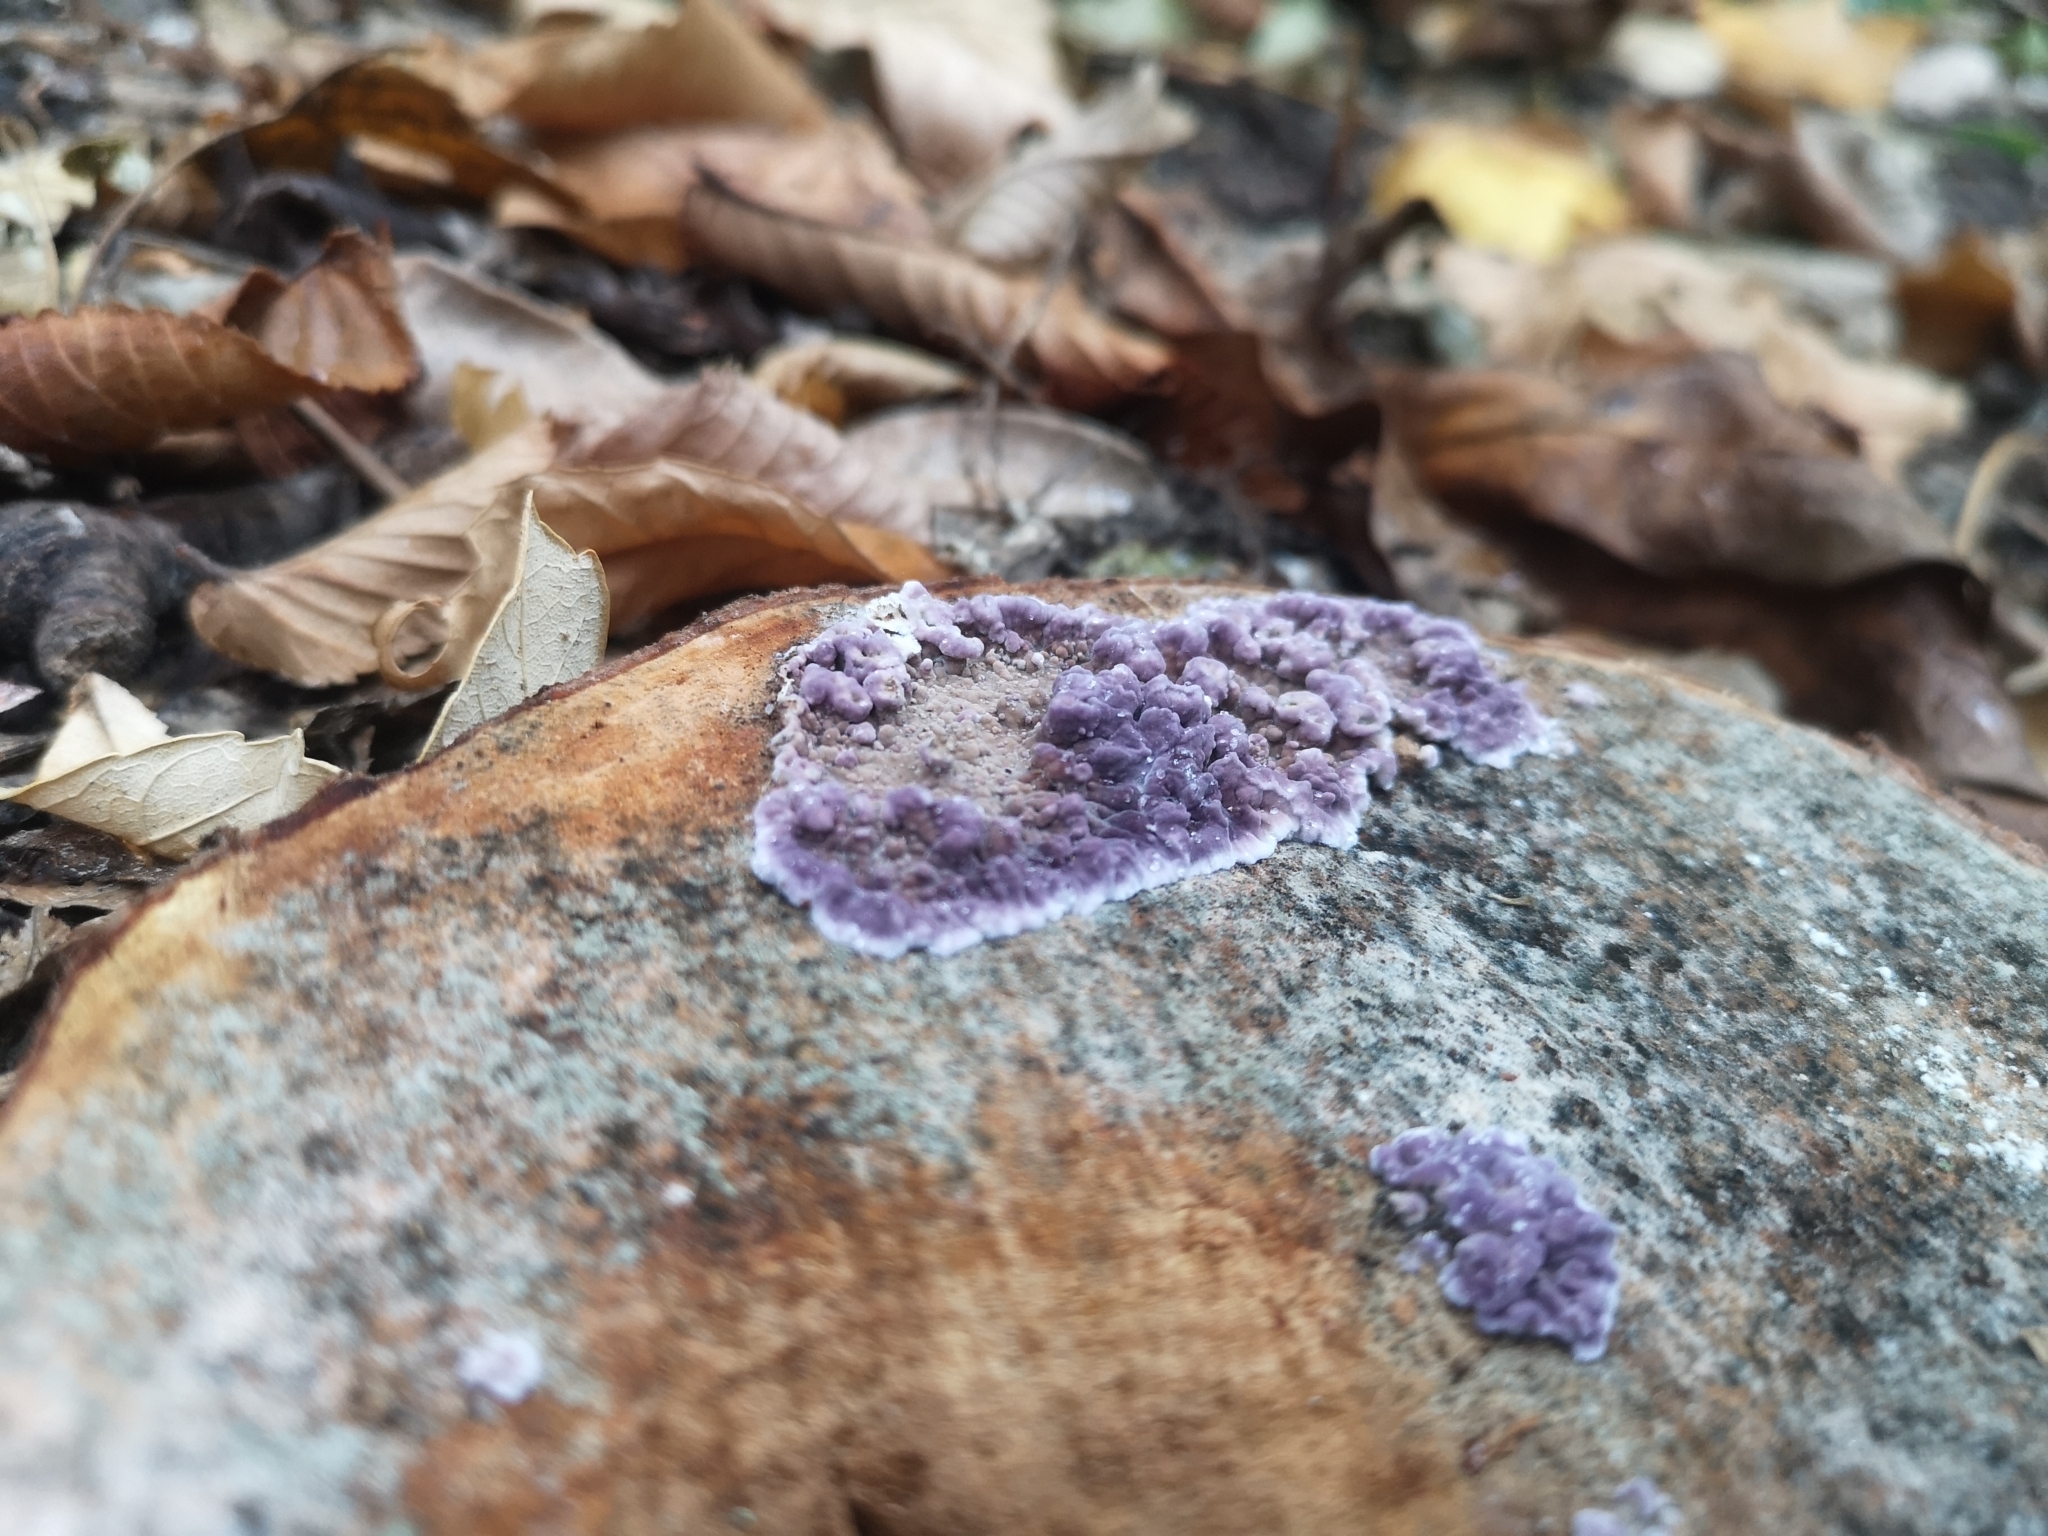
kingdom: Fungi
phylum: Basidiomycota
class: Agaricomycetes
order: Agaricales
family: Cyphellaceae
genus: Chondrostereum
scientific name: Chondrostereum purpureum
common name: Silver leaf disease
